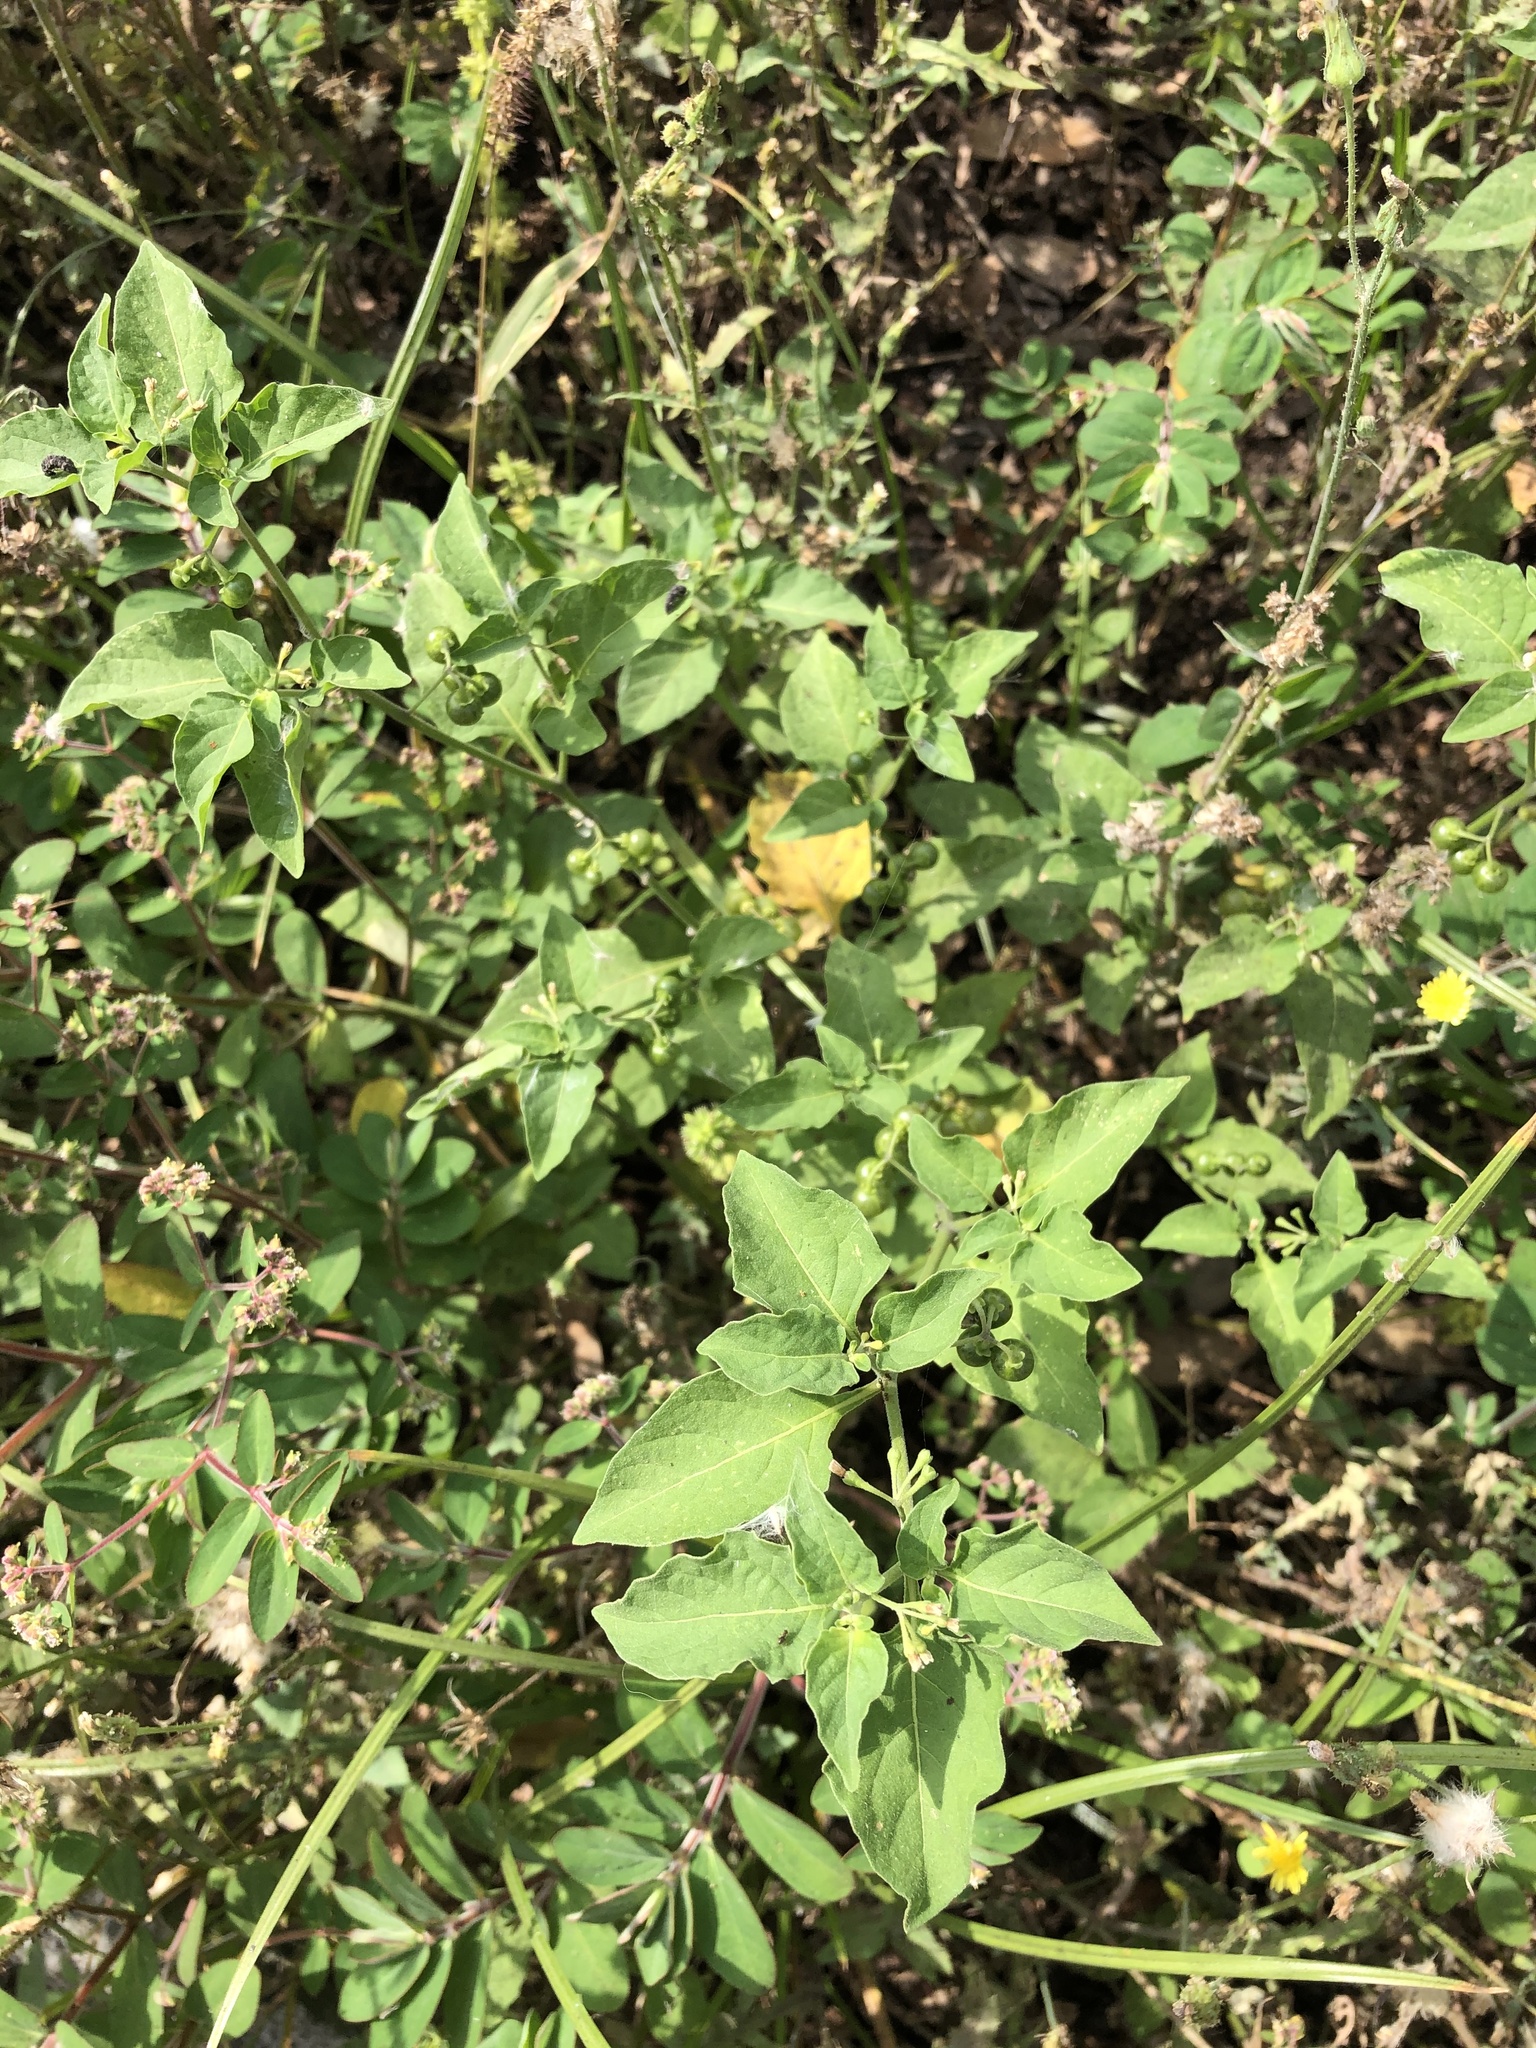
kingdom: Plantae
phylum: Tracheophyta
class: Magnoliopsida
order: Solanales
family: Solanaceae
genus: Solanum
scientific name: Solanum americanum
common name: American black nightshade
